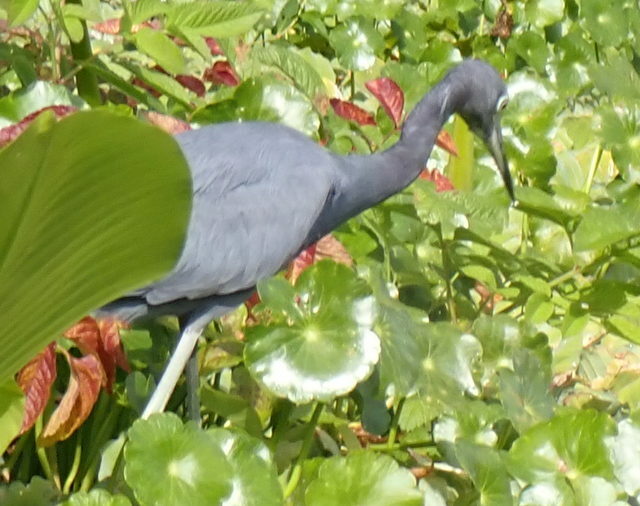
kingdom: Animalia
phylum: Chordata
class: Aves
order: Pelecaniformes
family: Ardeidae
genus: Egretta
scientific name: Egretta caerulea
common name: Little blue heron
